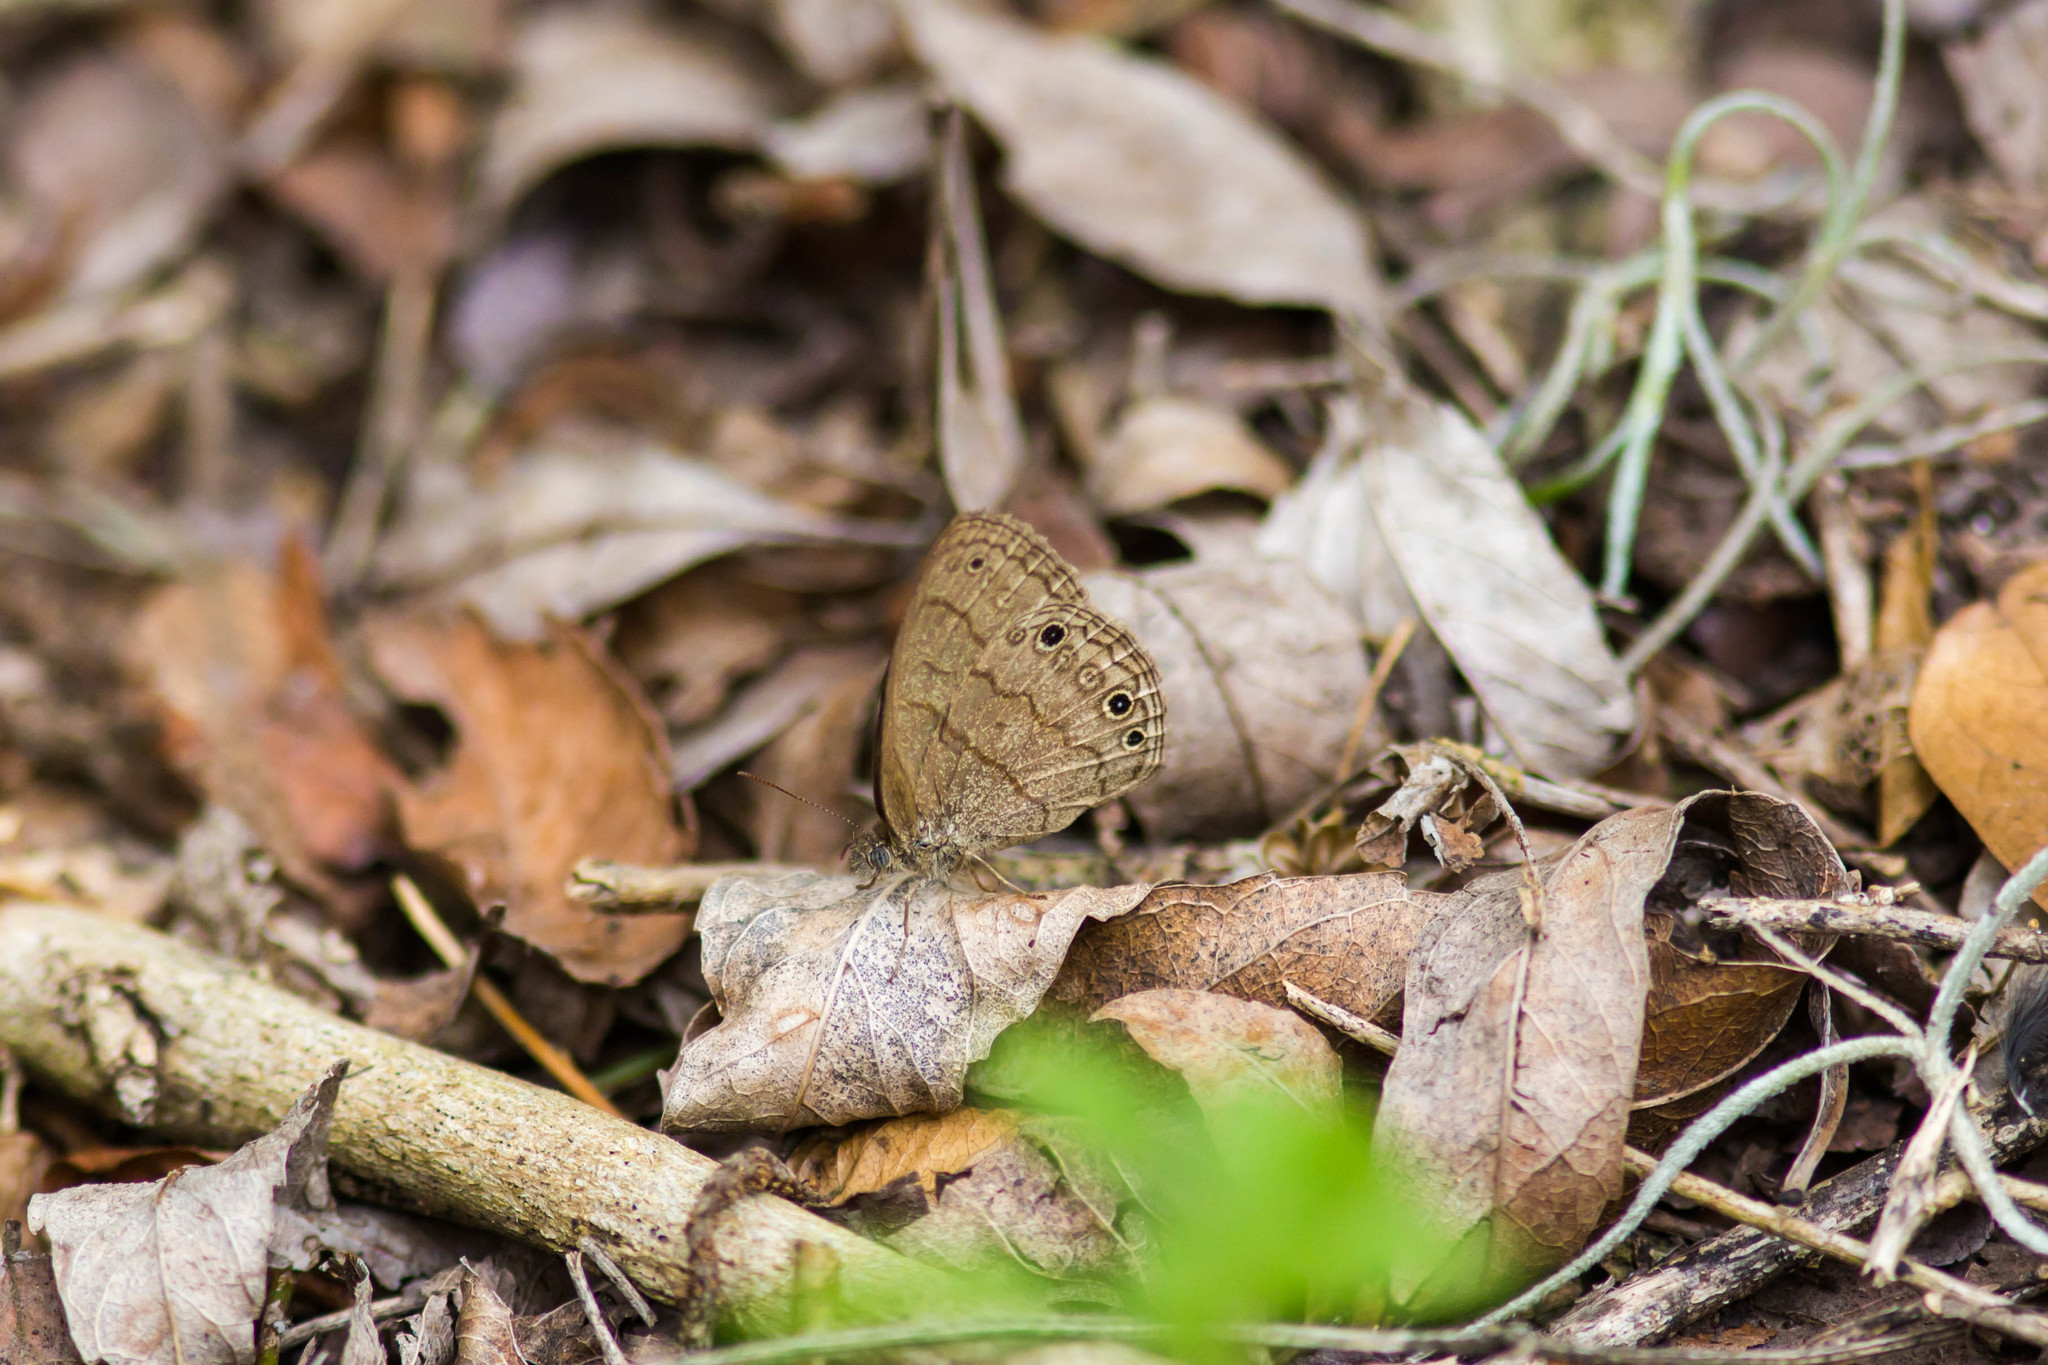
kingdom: Animalia
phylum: Arthropoda
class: Insecta
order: Lepidoptera
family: Nymphalidae
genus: Hermeuptychia
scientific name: Hermeuptychia hermybius
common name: South texas satyr
